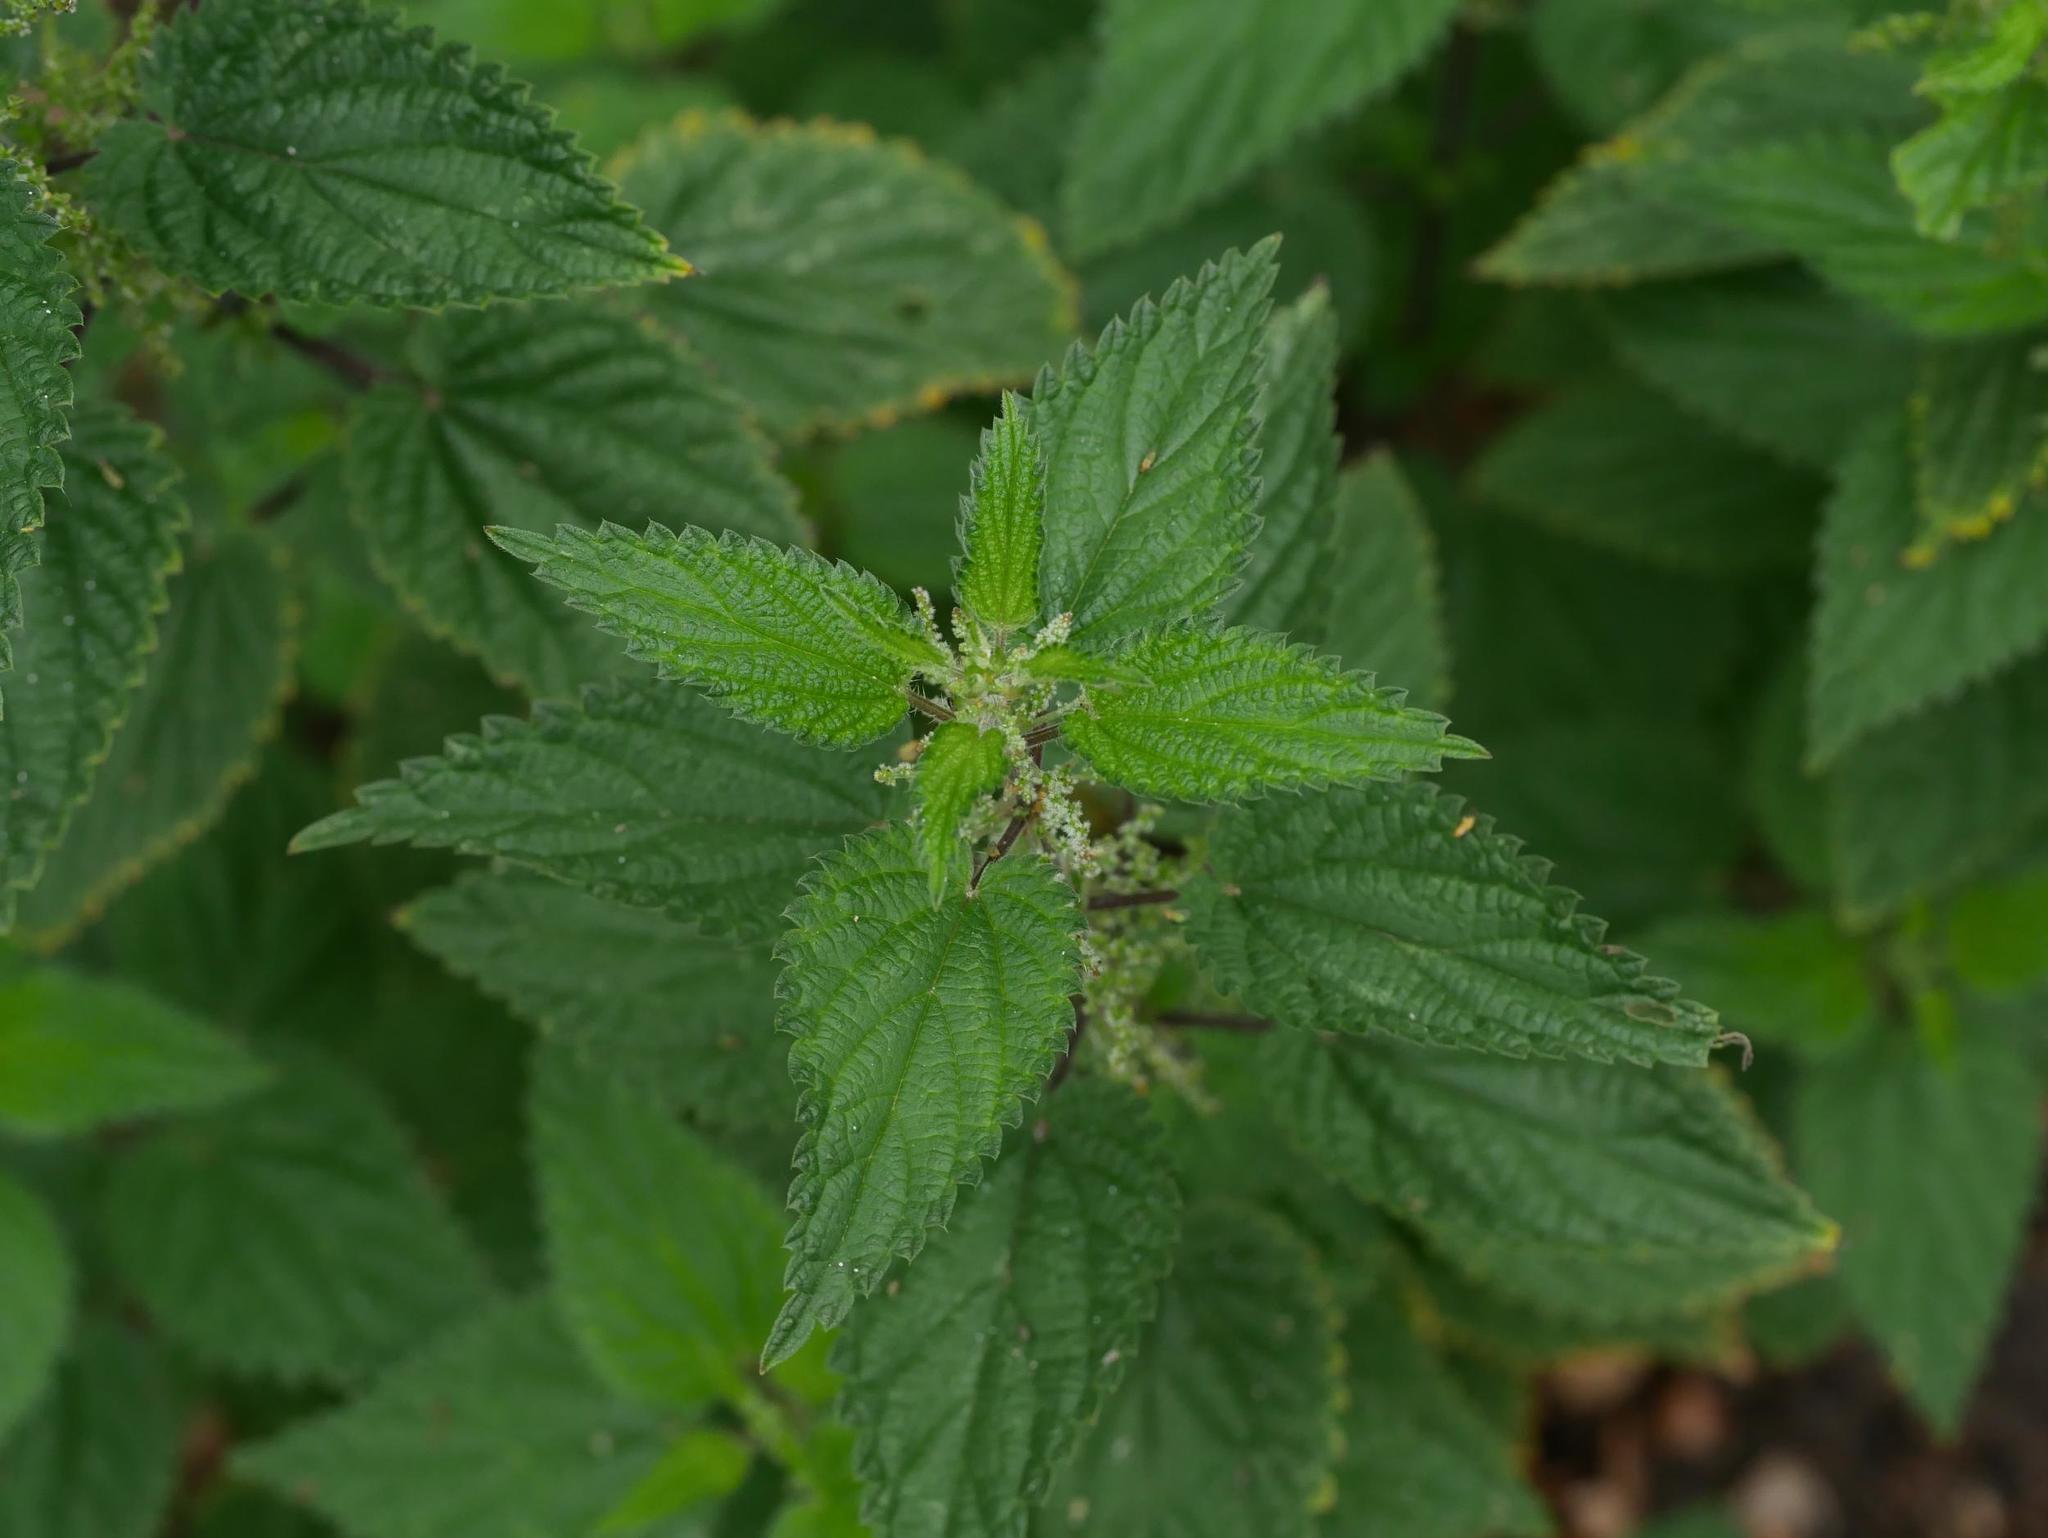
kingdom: Plantae
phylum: Tracheophyta
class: Magnoliopsida
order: Rosales
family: Urticaceae
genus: Urtica
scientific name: Urtica dioica
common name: Common nettle
